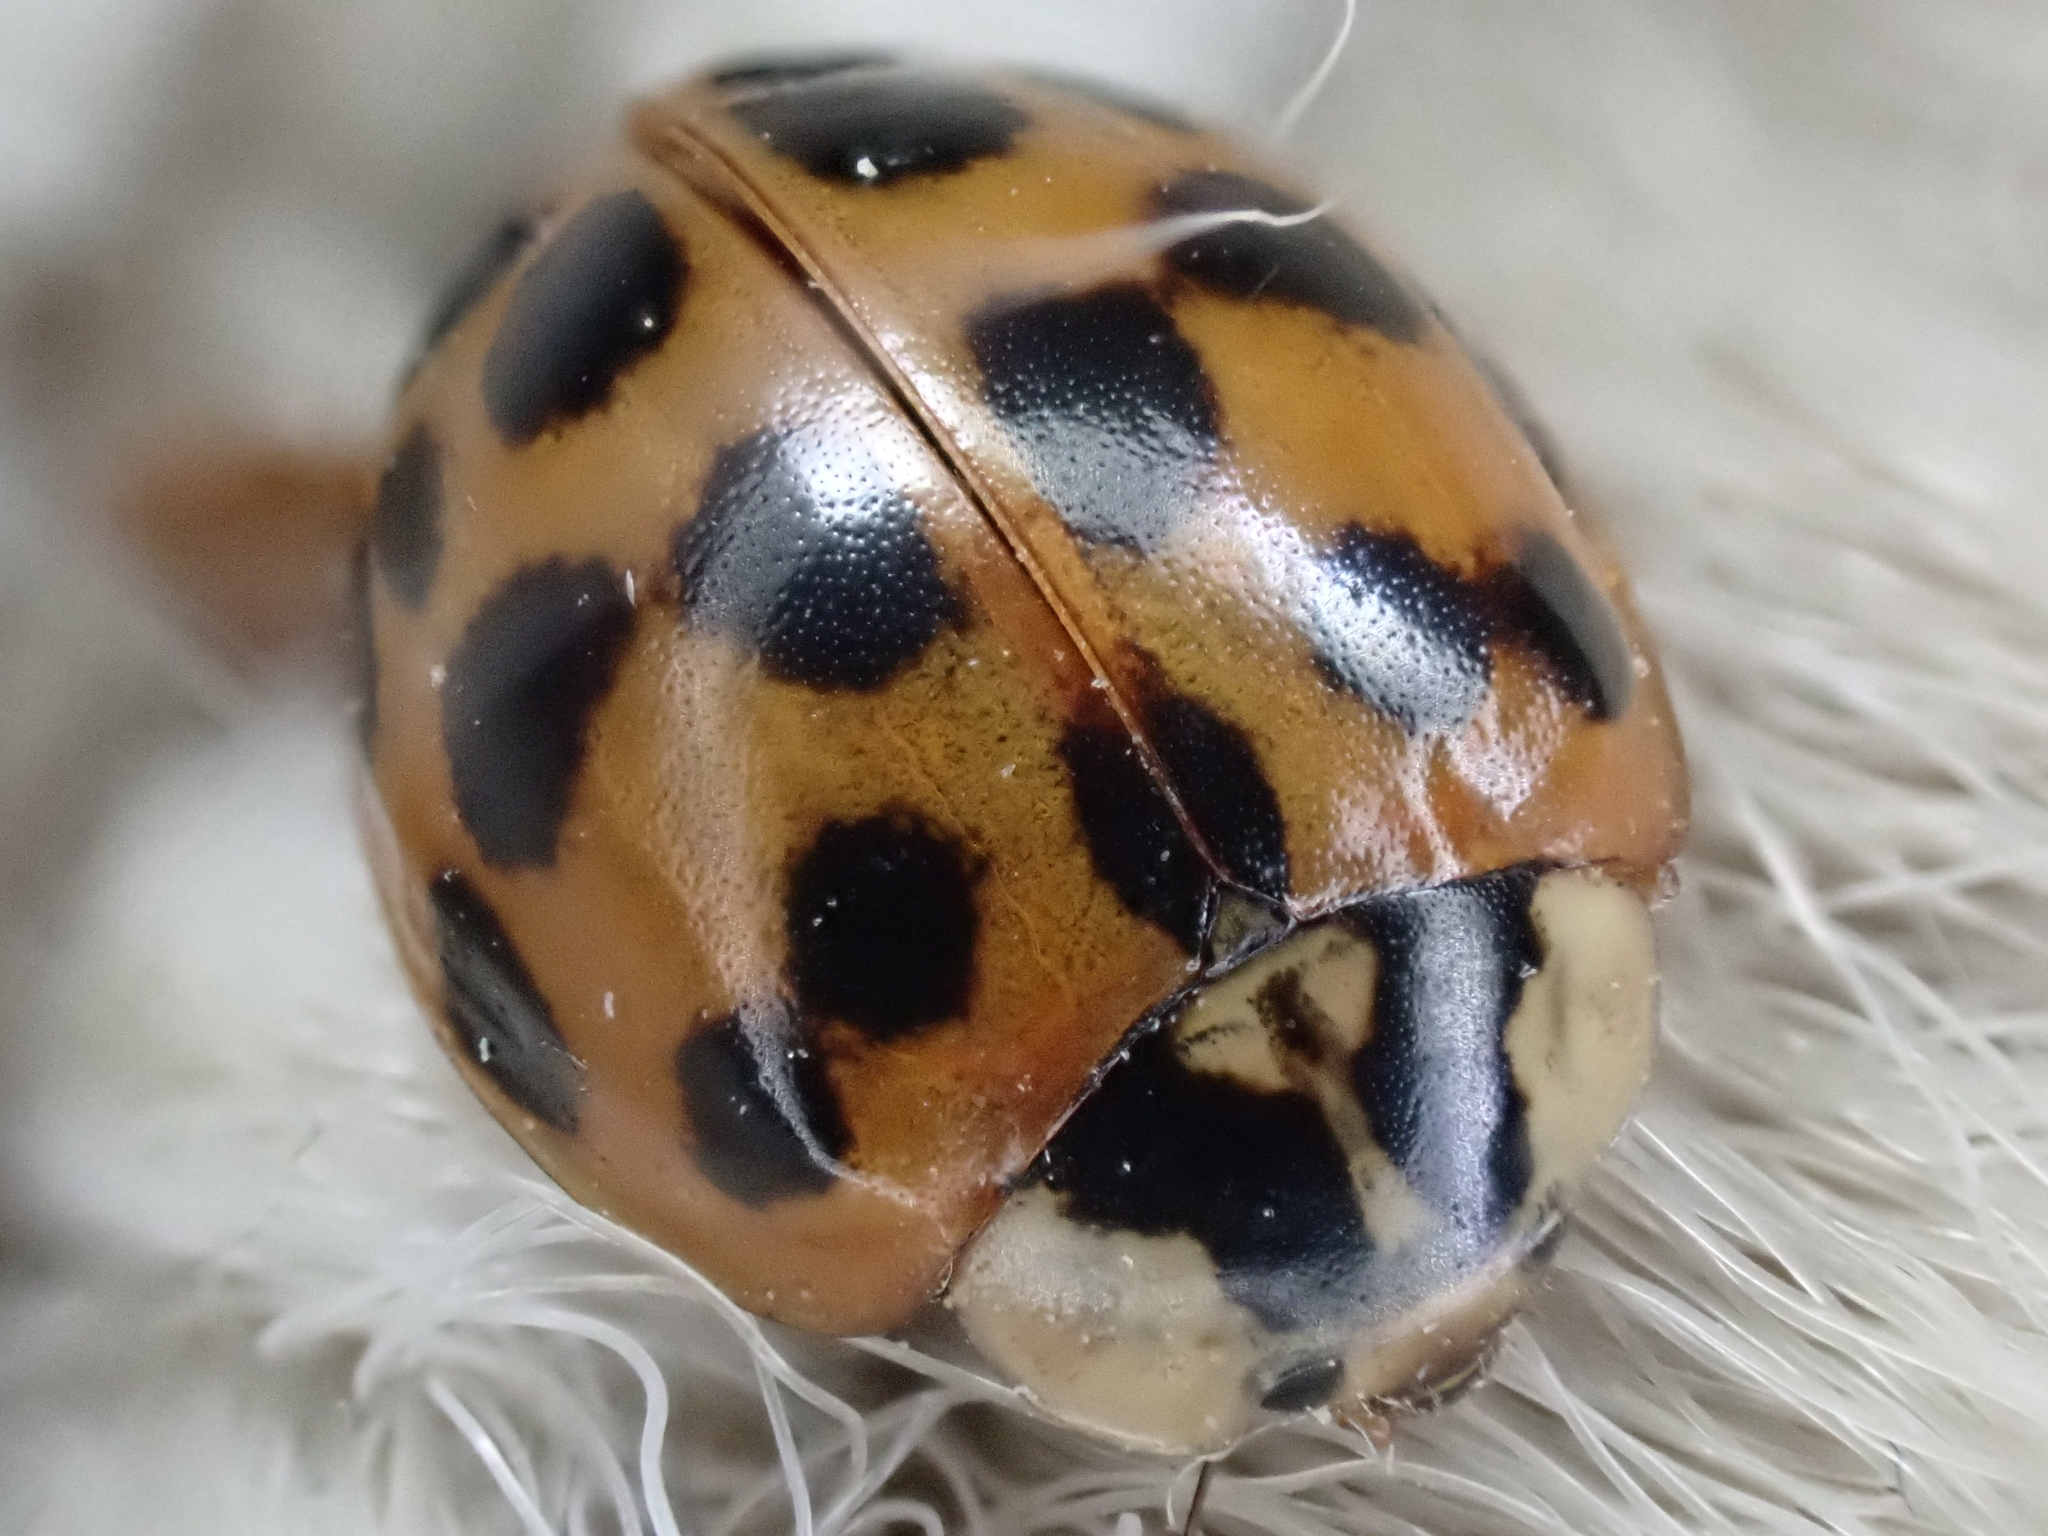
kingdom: Animalia
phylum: Arthropoda
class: Insecta
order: Coleoptera
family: Coccinellidae
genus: Harmonia
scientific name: Harmonia axyridis
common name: Harlequin ladybird
